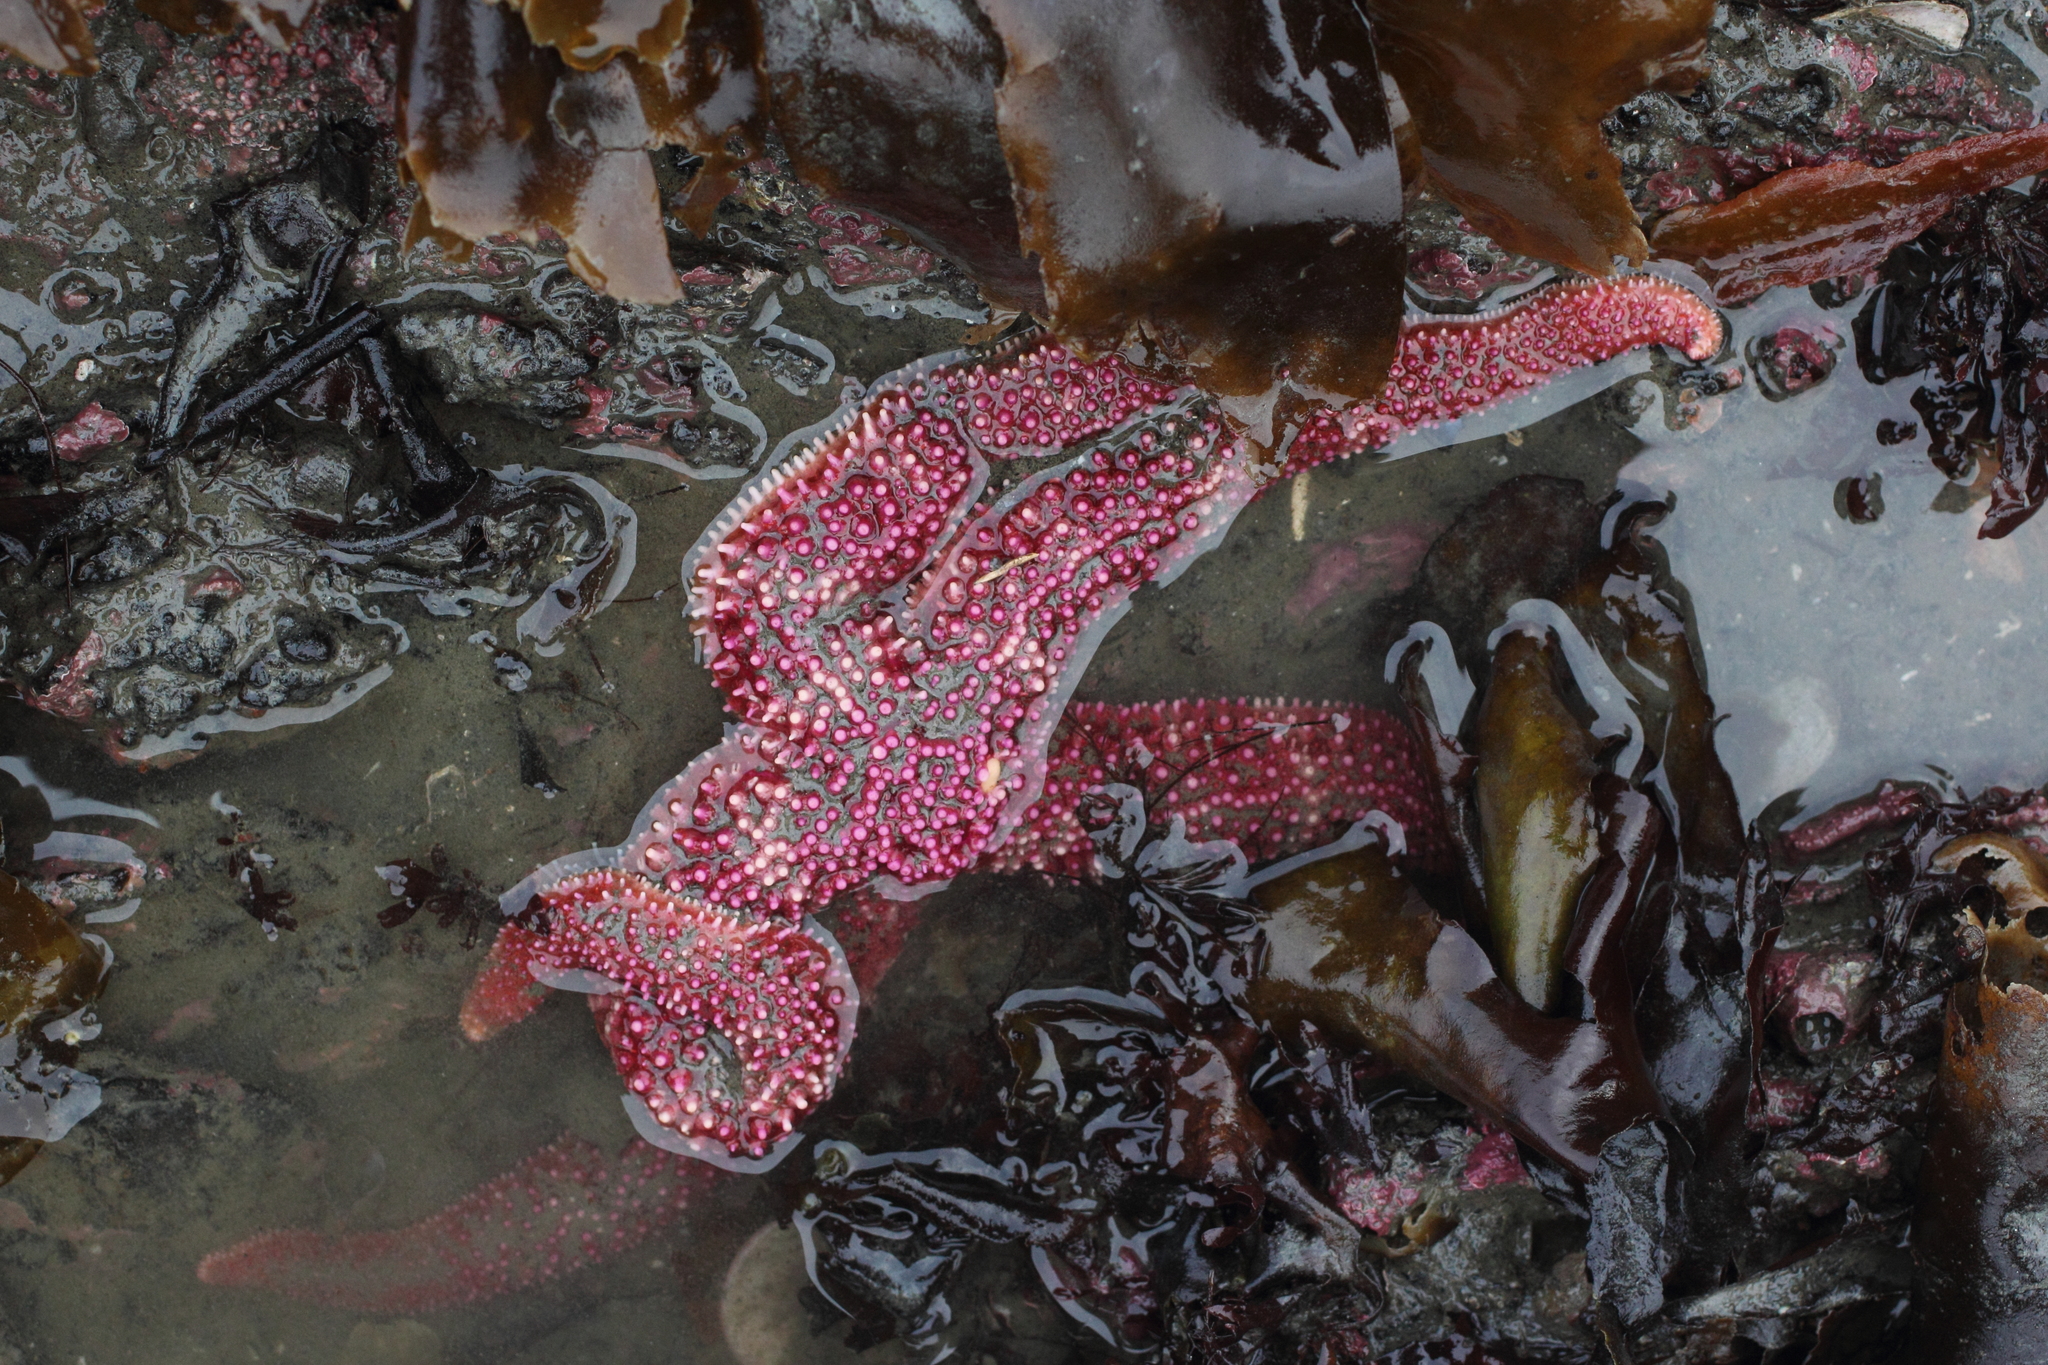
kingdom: Animalia
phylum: Echinodermata
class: Asteroidea
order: Forcipulatida
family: Asteriidae
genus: Orthasterias
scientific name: Orthasterias koehleri
